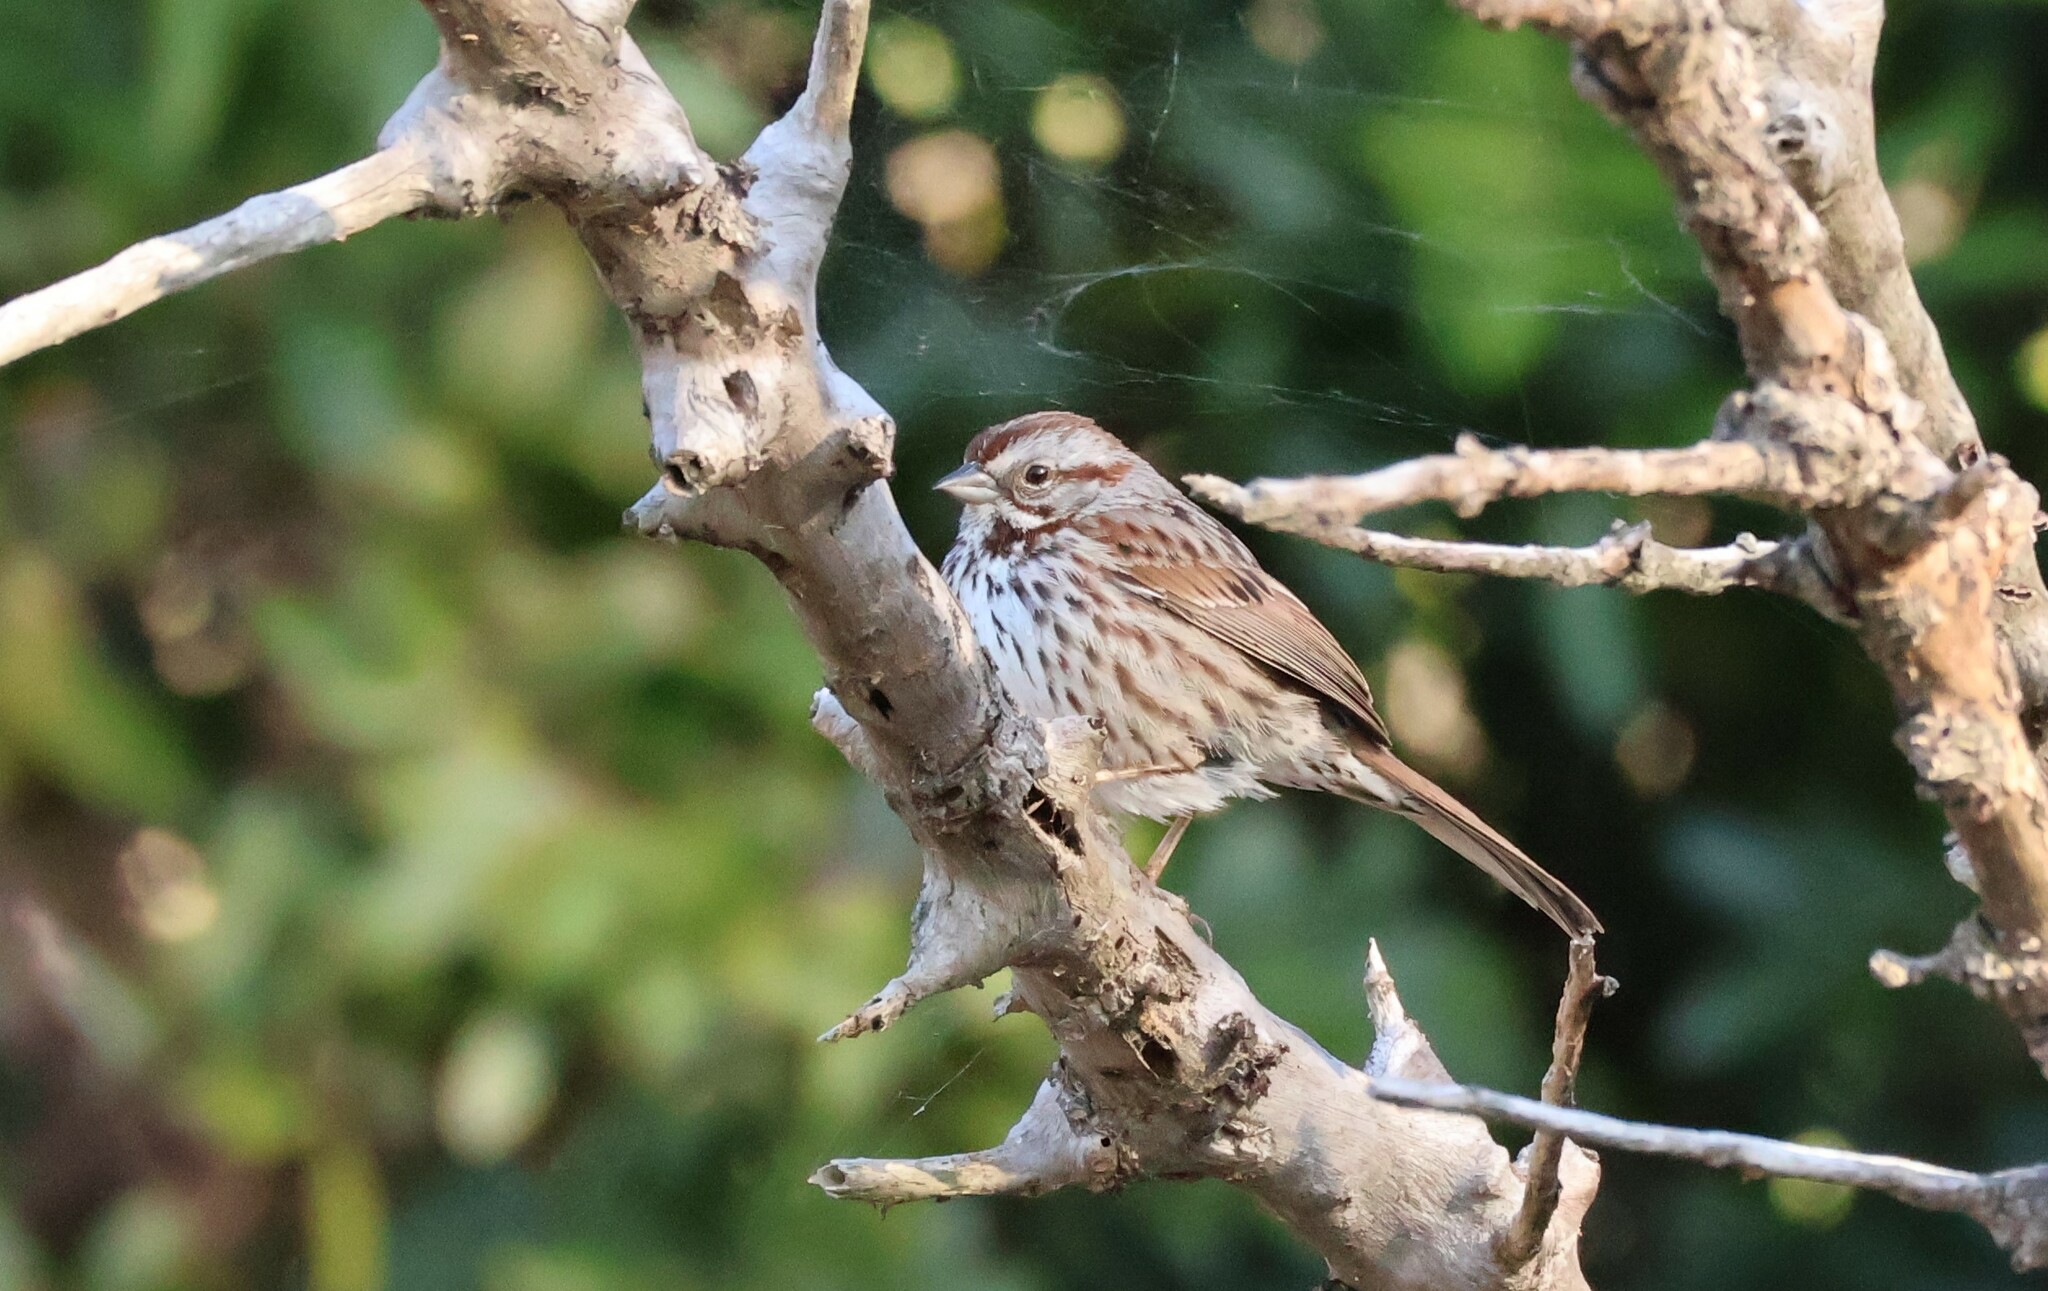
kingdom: Animalia
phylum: Chordata
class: Aves
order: Passeriformes
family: Passerellidae
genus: Melospiza
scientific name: Melospiza melodia
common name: Song sparrow
